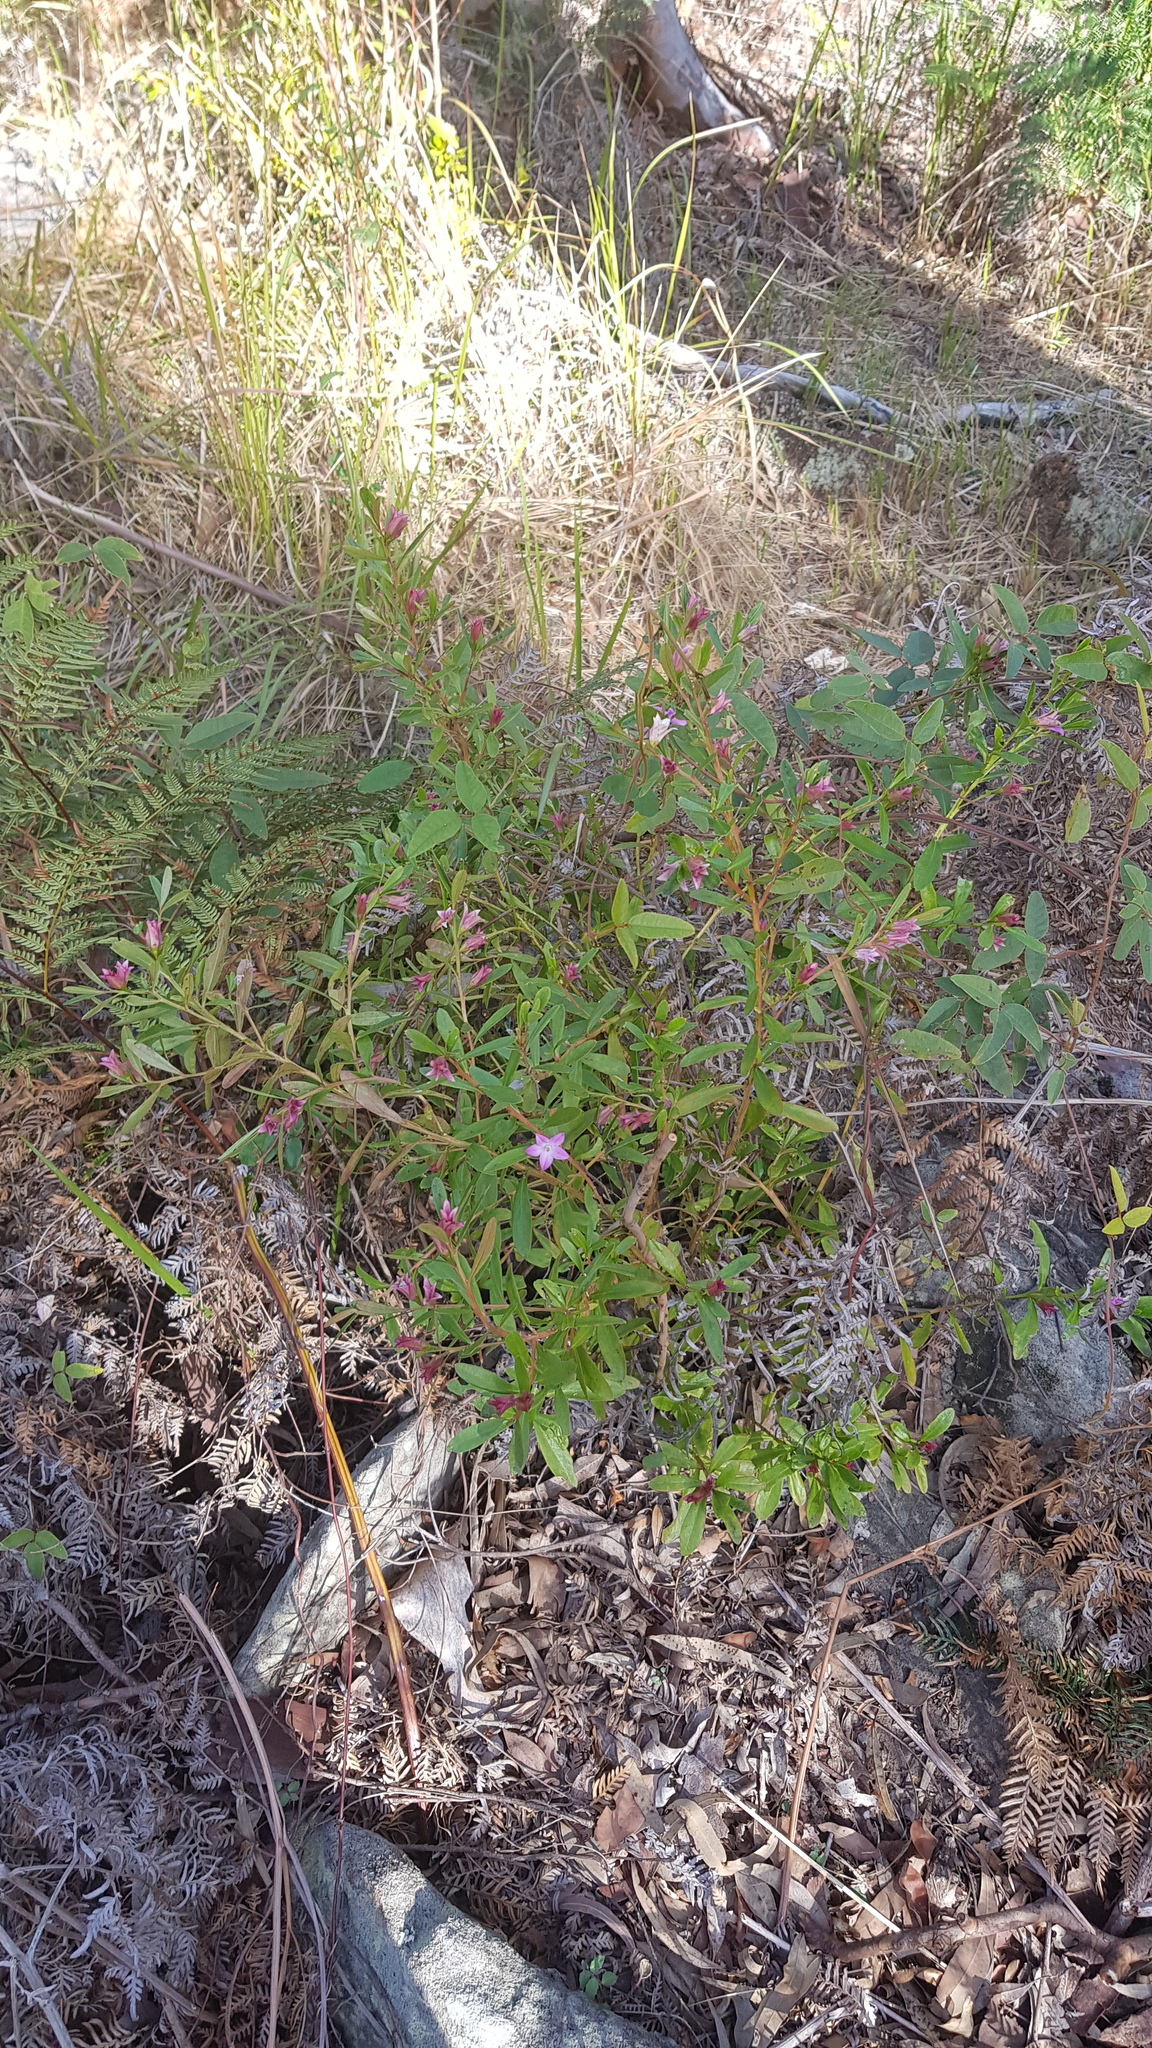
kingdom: Plantae
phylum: Tracheophyta
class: Magnoliopsida
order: Sapindales
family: Rutaceae
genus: Crowea
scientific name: Crowea saligna
